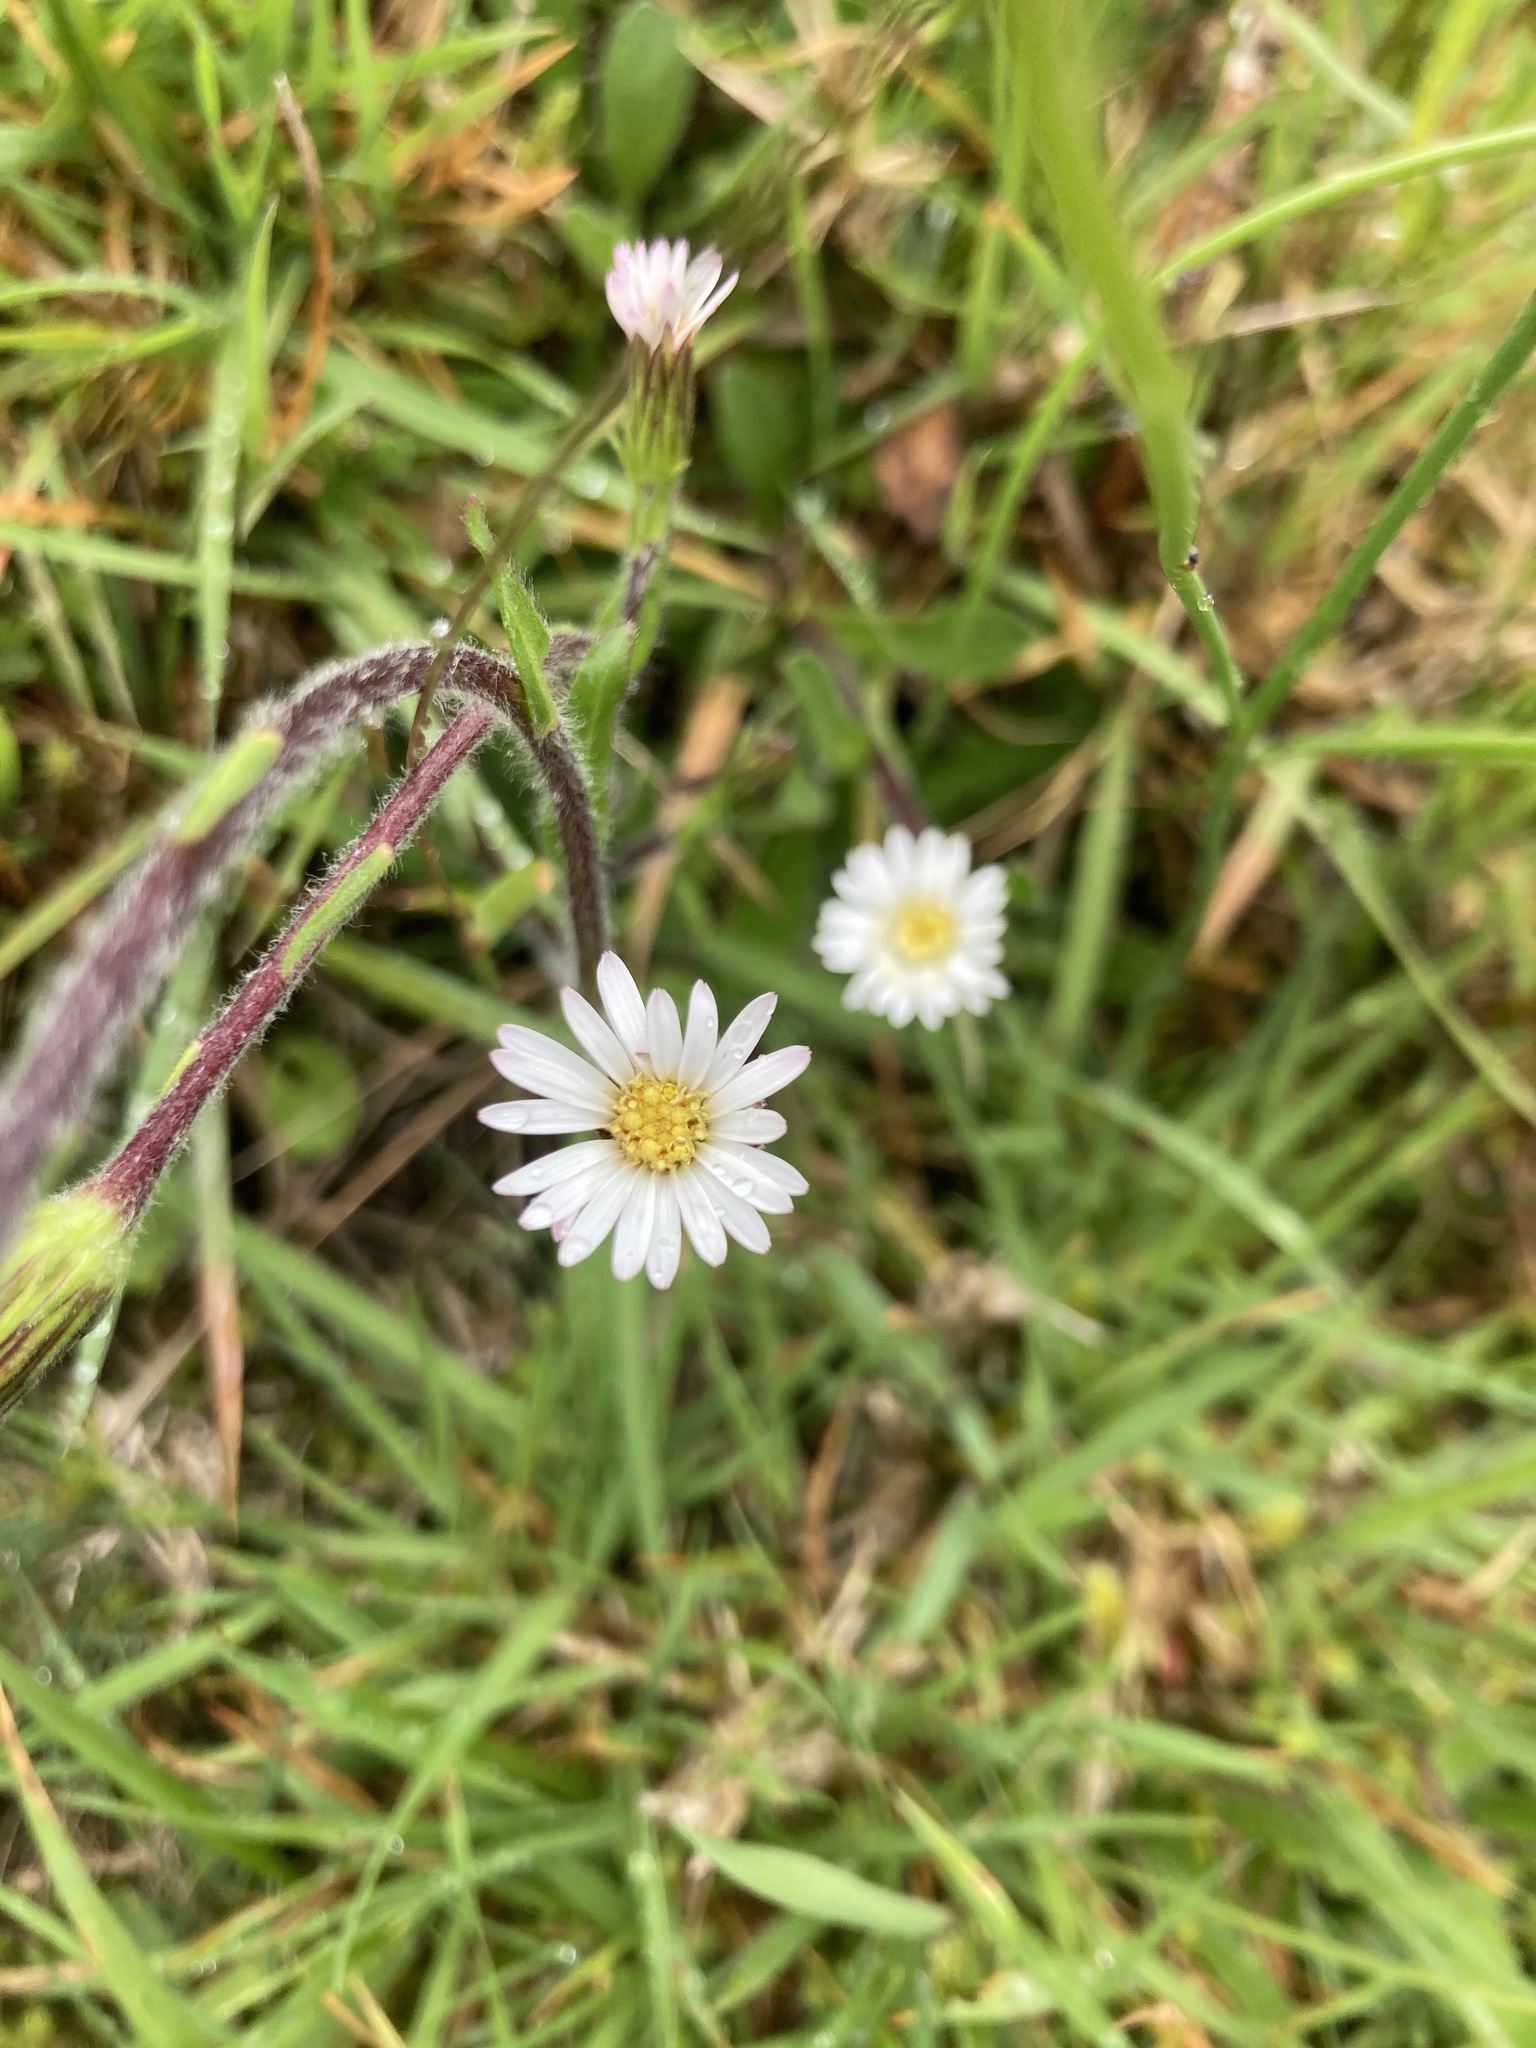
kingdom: Plantae
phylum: Tracheophyta
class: Magnoliopsida
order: Asterales
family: Asteraceae
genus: Noticastrum
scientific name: Noticastrum marginatum
